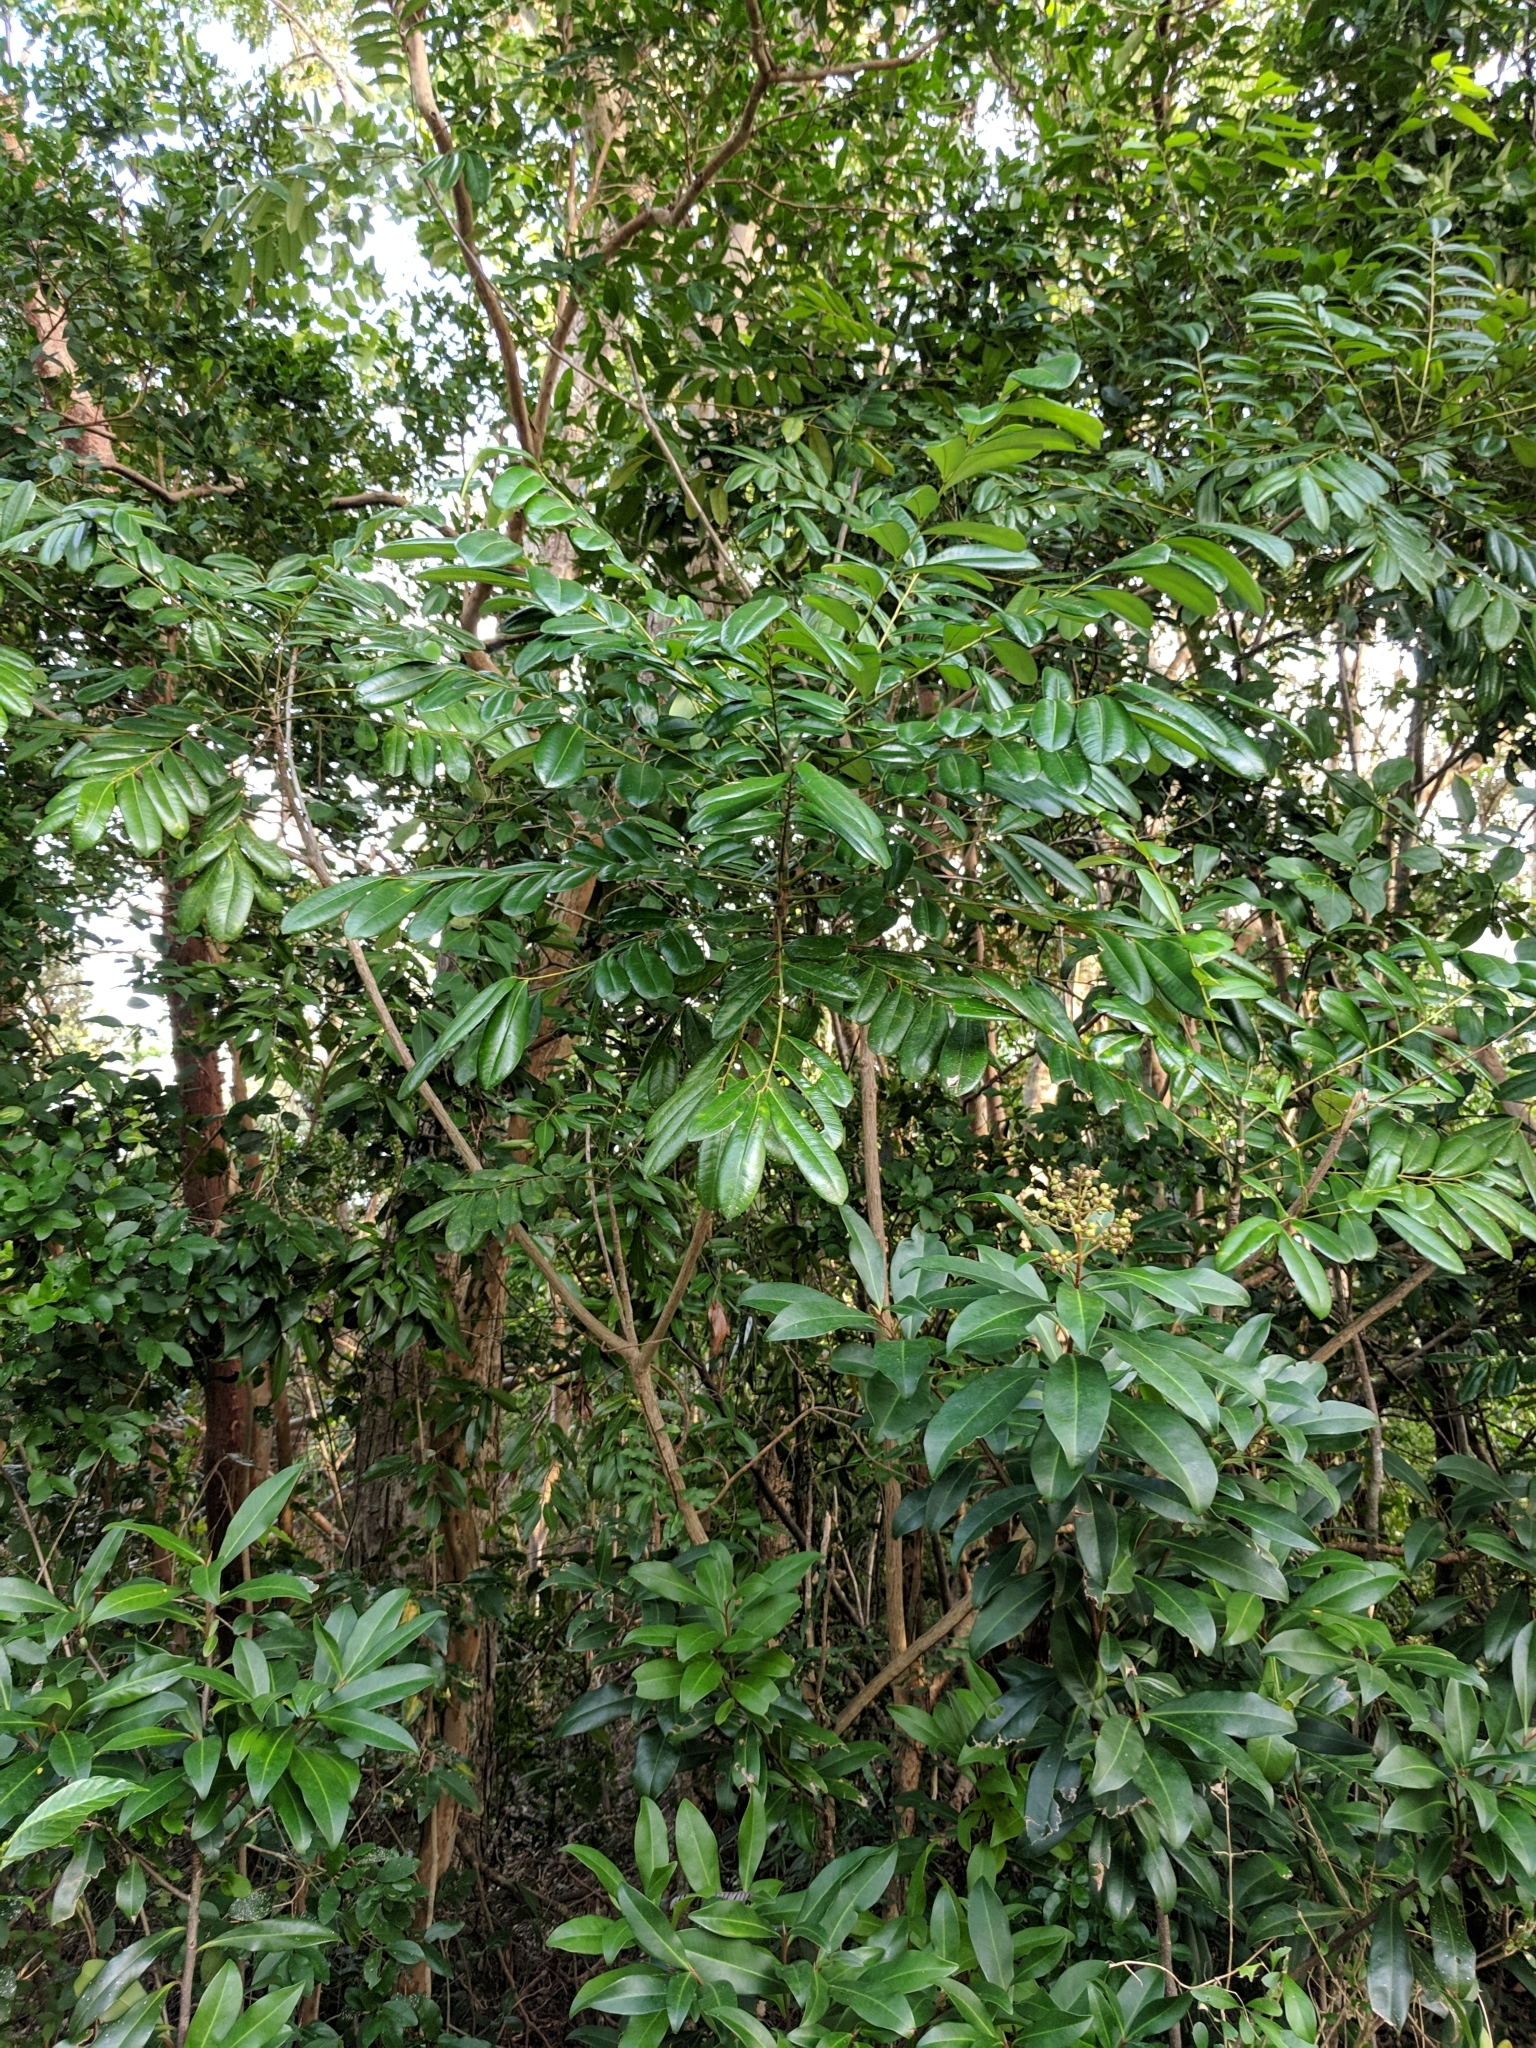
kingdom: Plantae
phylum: Tracheophyta
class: Magnoliopsida
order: Sapindales
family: Simaroubaceae
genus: Simarouba
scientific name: Simarouba glauca
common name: Dysentery-bark
